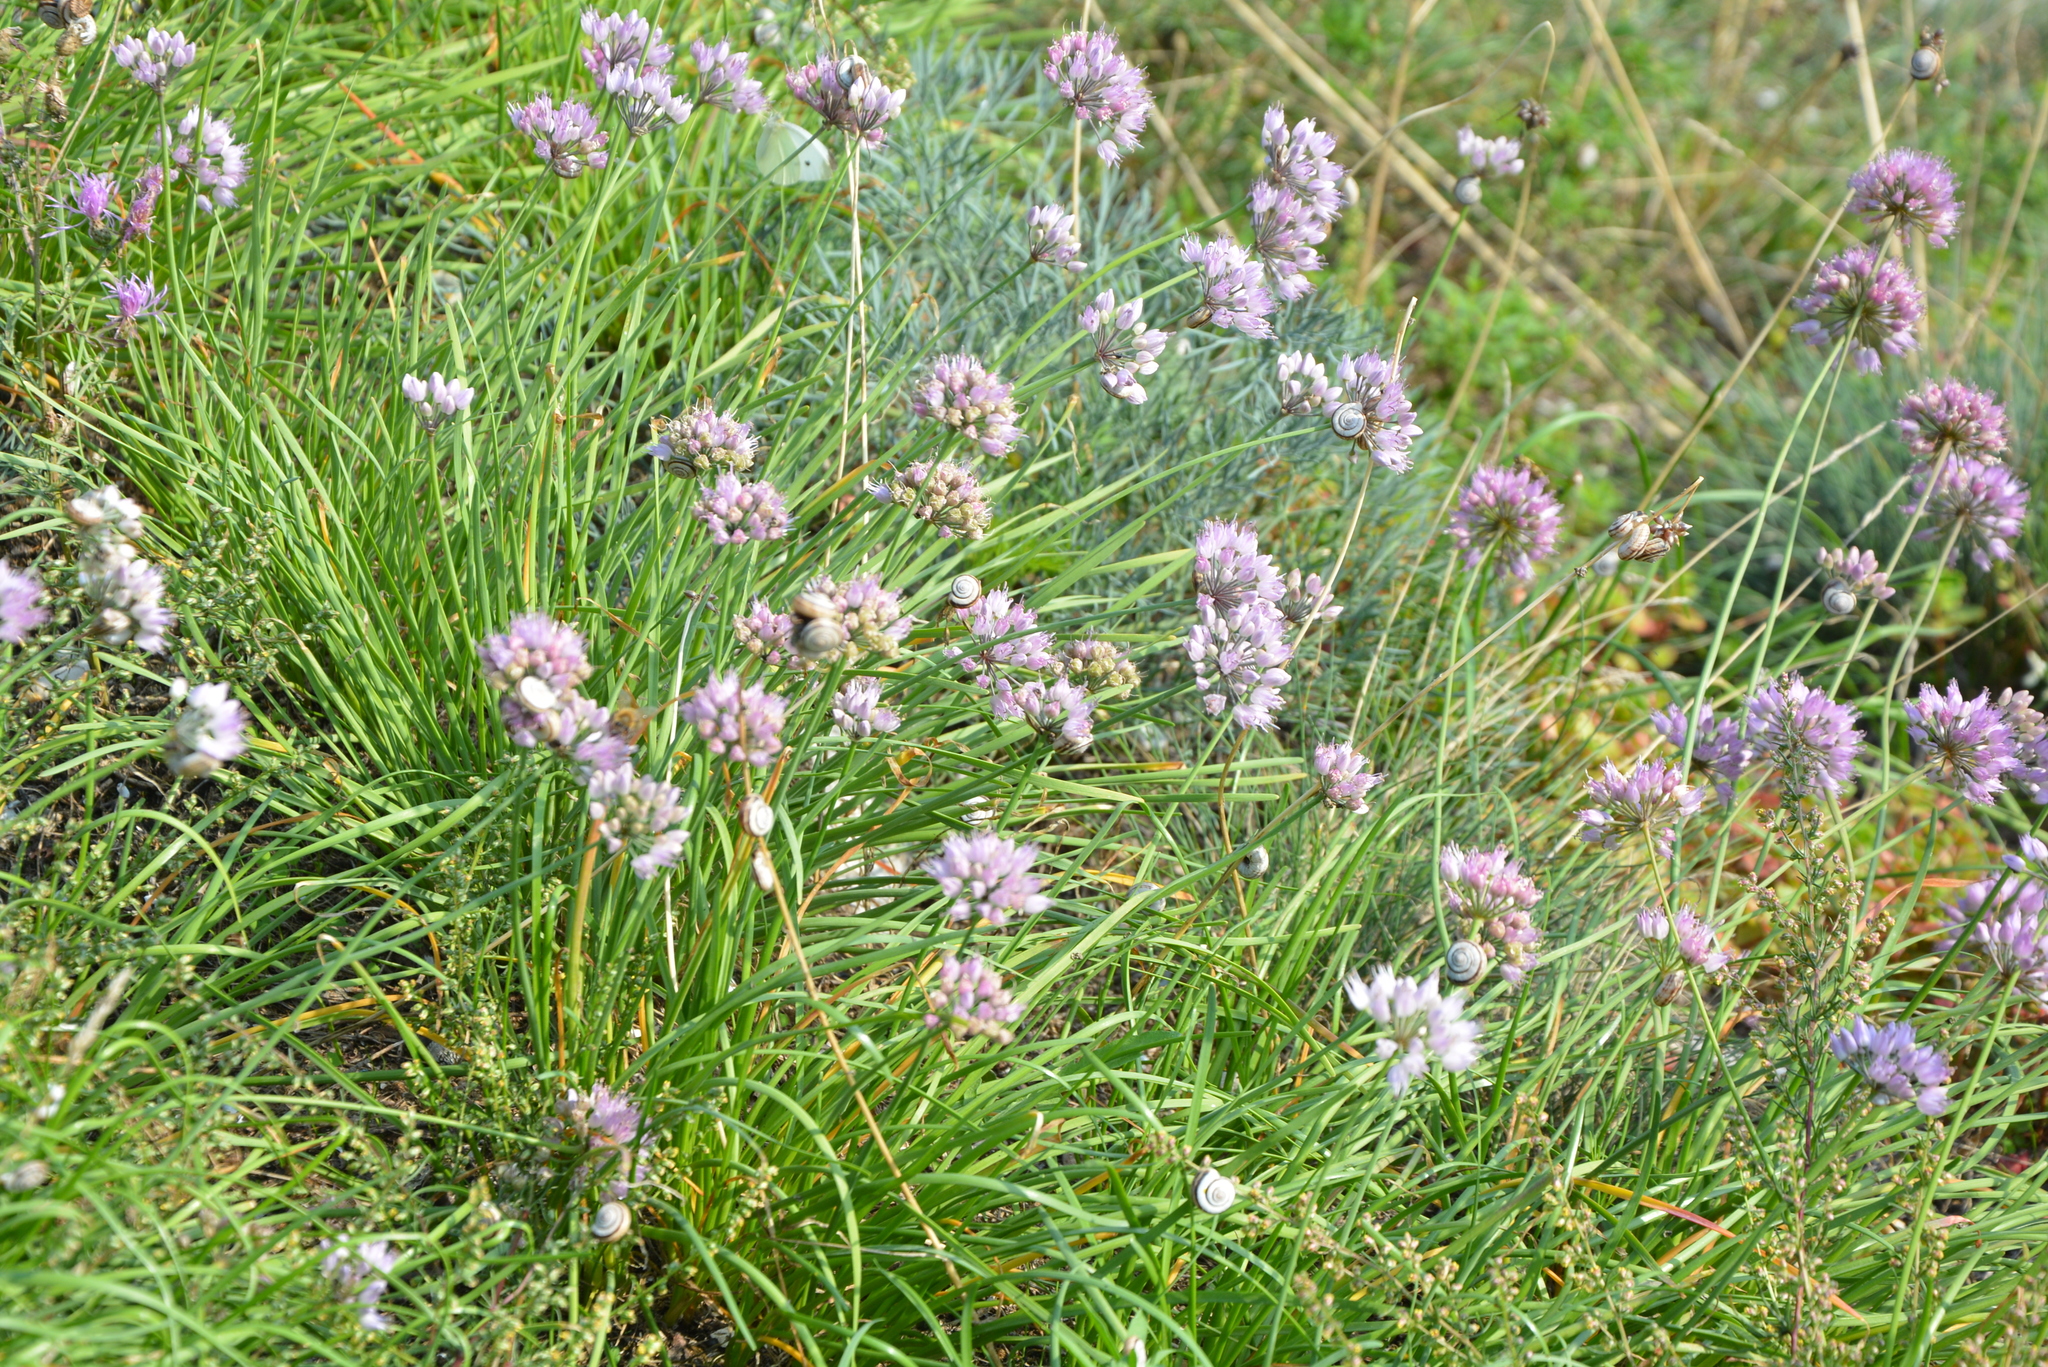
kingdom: Plantae
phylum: Tracheophyta
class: Liliopsida
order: Asparagales
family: Amaryllidaceae
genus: Allium
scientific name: Allium lusitanicum
